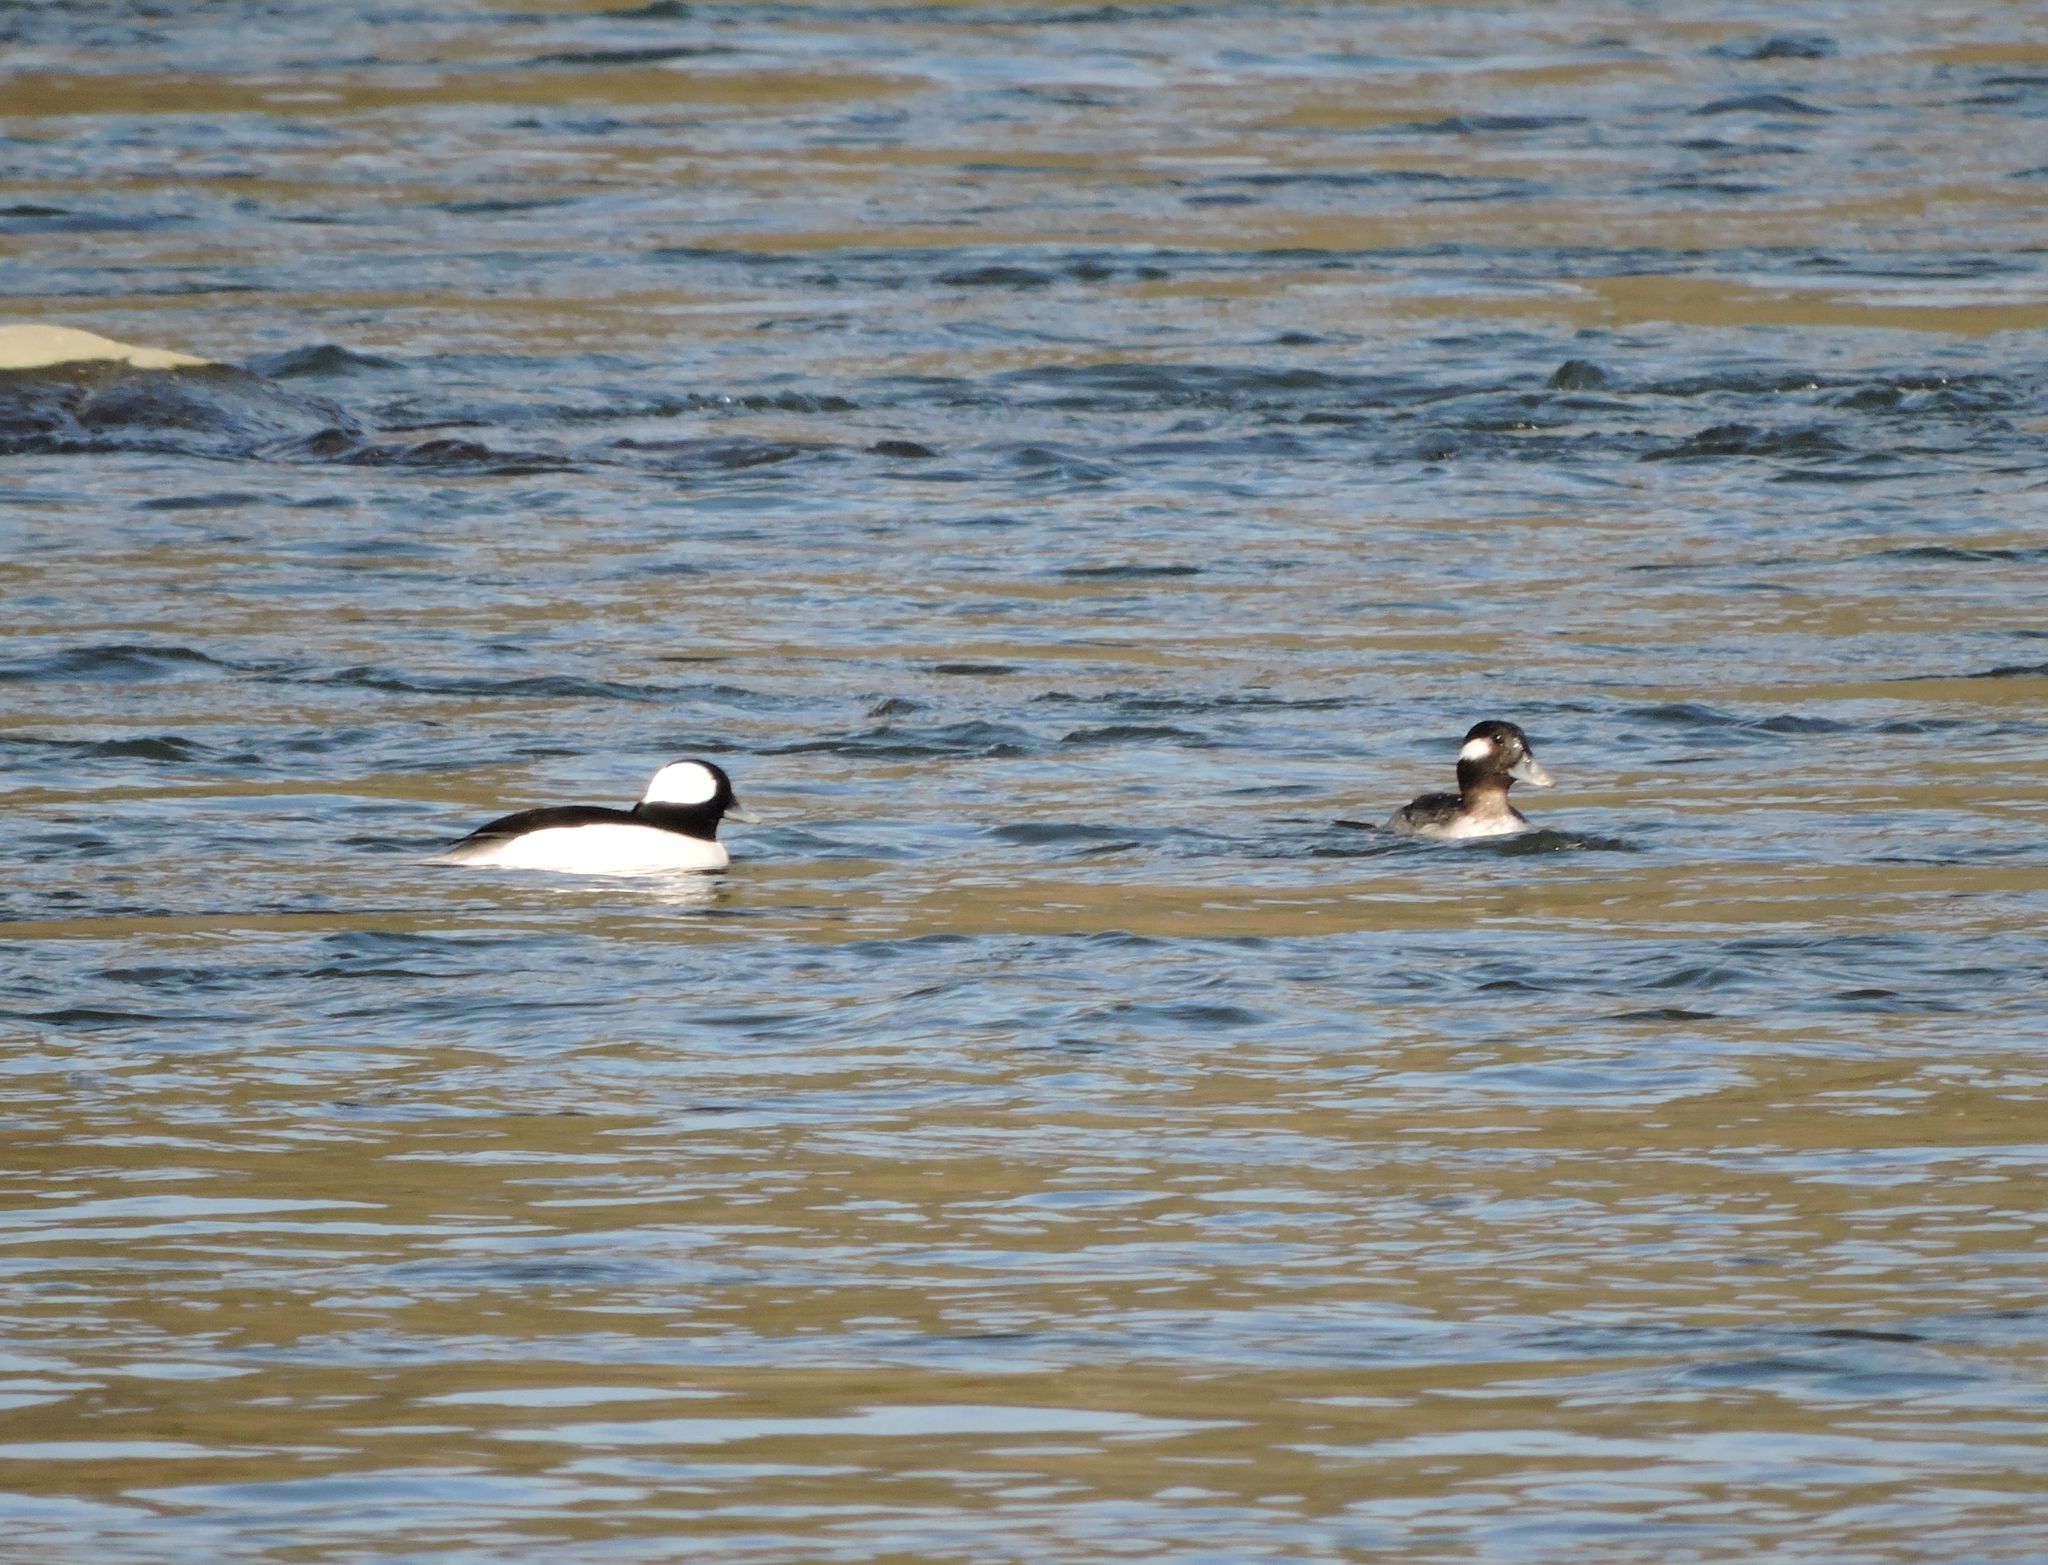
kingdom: Animalia
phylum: Chordata
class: Aves
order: Anseriformes
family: Anatidae
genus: Bucephala
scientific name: Bucephala albeola
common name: Bufflehead
